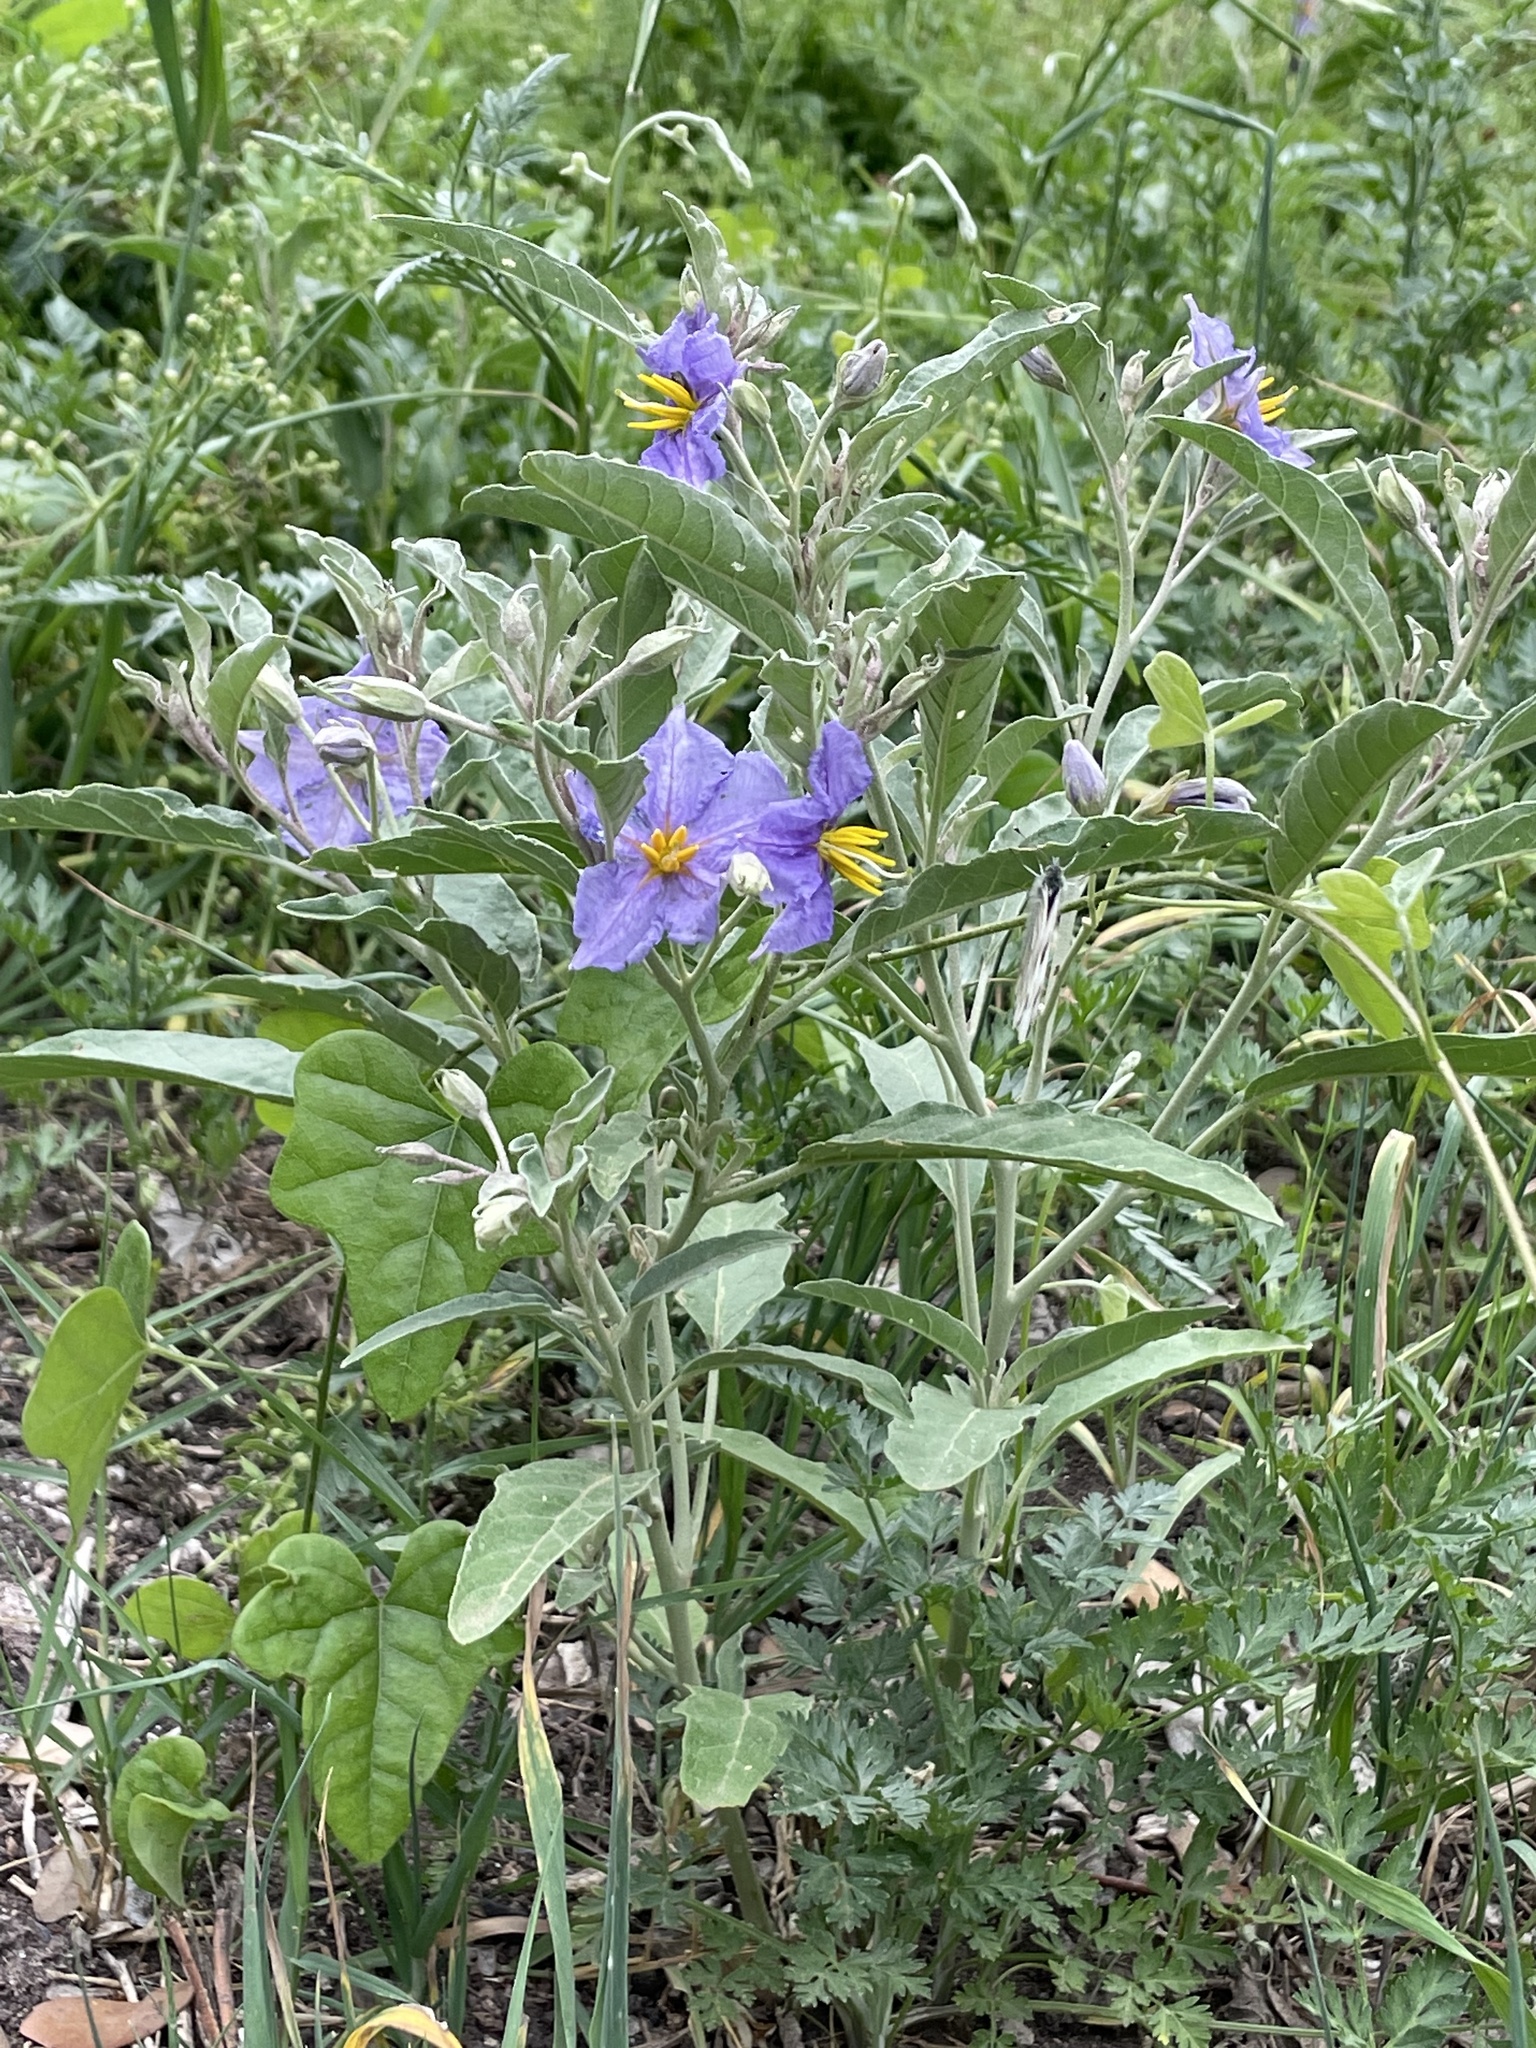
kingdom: Plantae
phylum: Tracheophyta
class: Magnoliopsida
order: Solanales
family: Solanaceae
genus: Solanum
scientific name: Solanum elaeagnifolium
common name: Silverleaf nightshade
